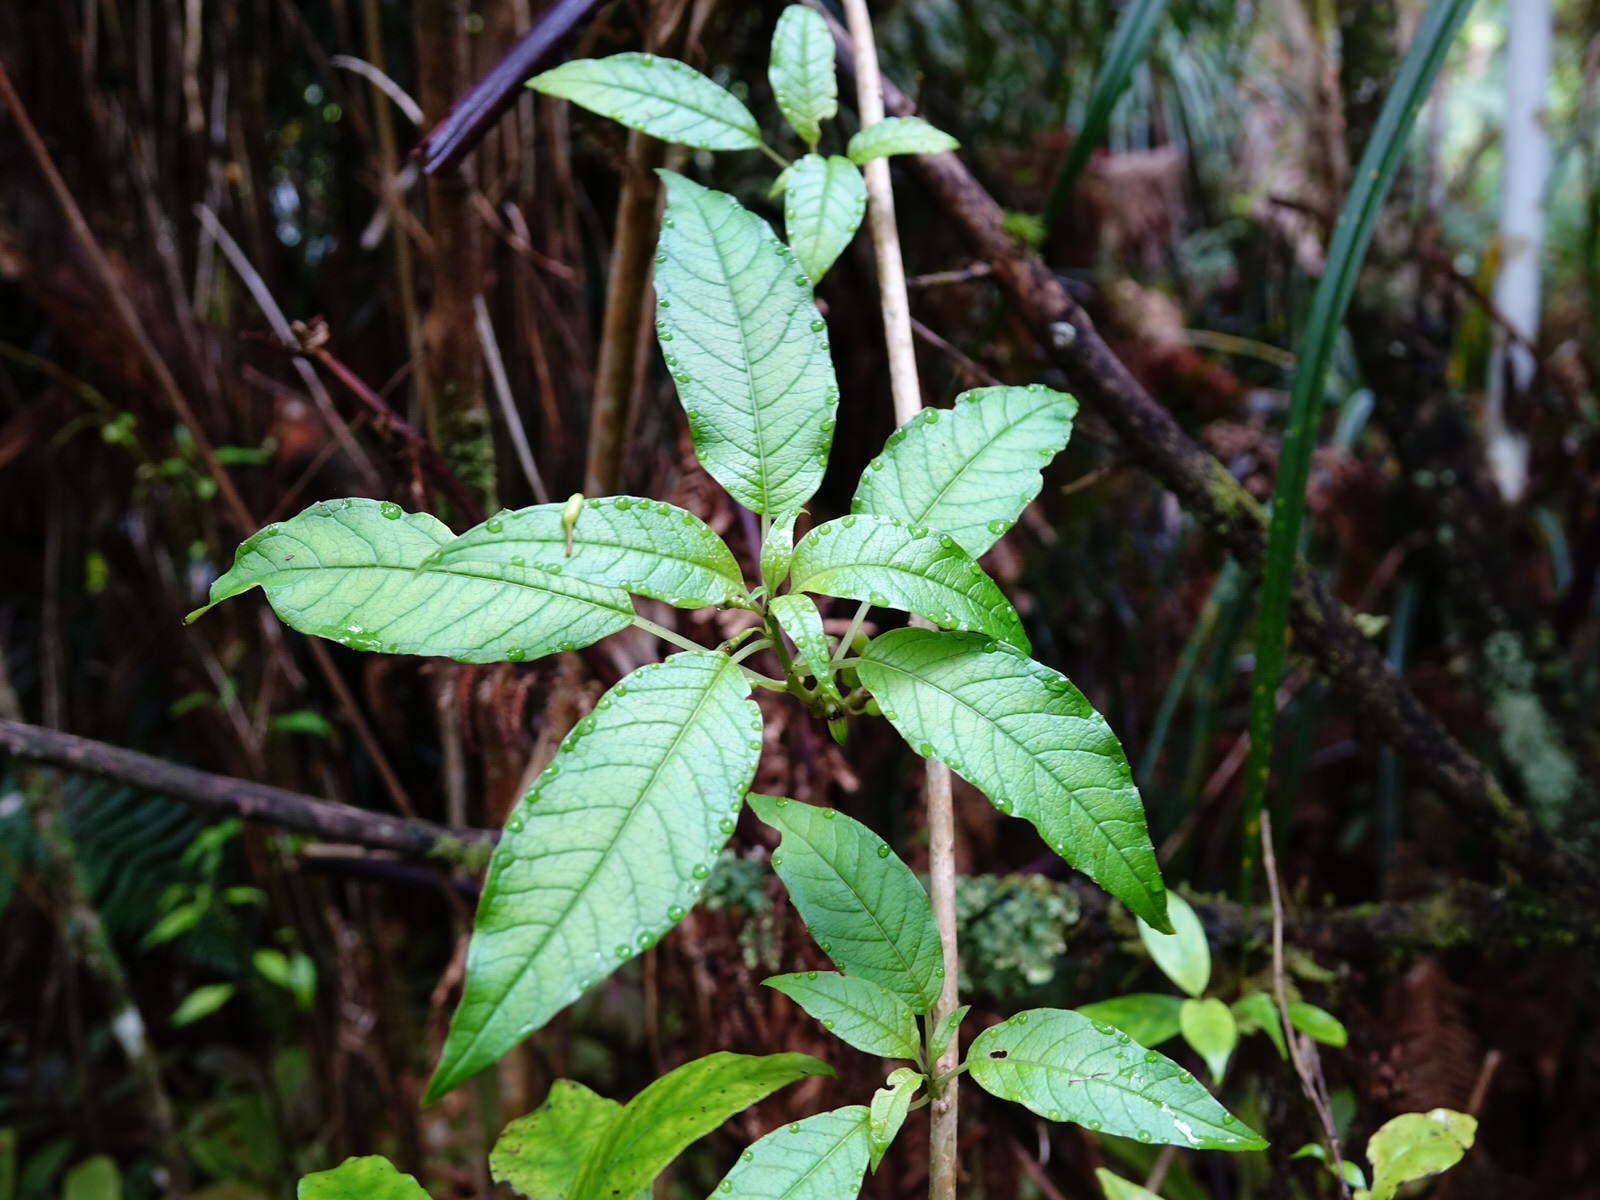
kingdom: Plantae
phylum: Tracheophyta
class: Magnoliopsida
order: Myrtales
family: Onagraceae
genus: Fuchsia
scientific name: Fuchsia excorticata
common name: Tree fuchsia
